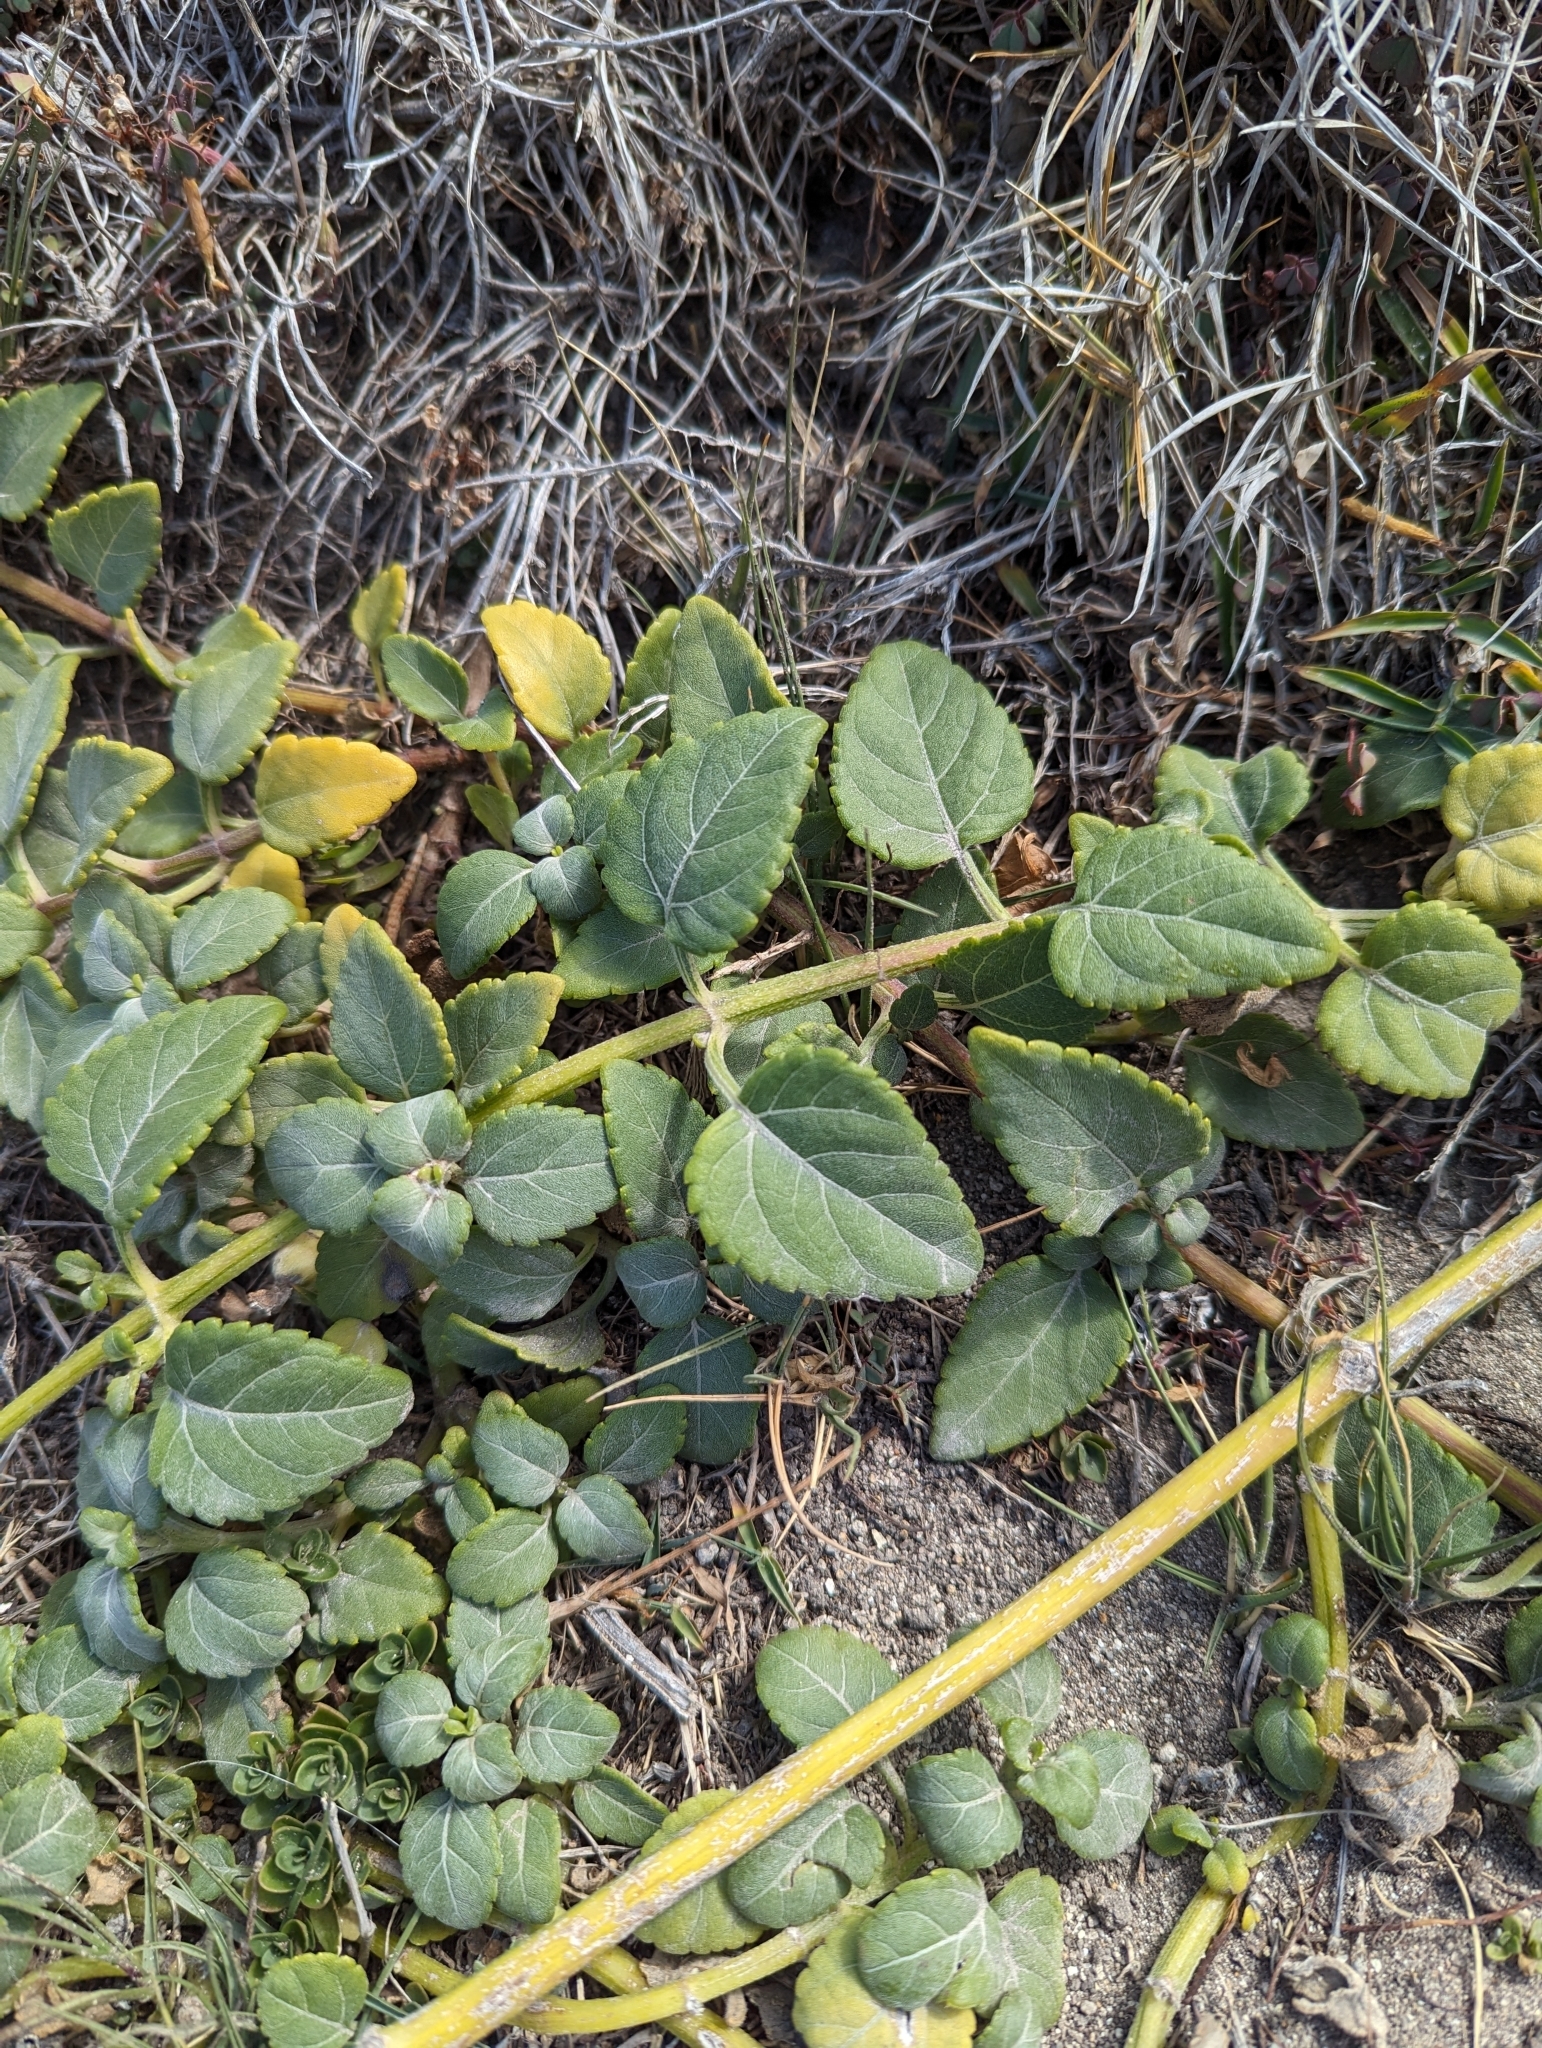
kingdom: Plantae
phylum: Tracheophyta
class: Magnoliopsida
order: Asterales
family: Asteraceae
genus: Wollastonia
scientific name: Wollastonia uniflora
